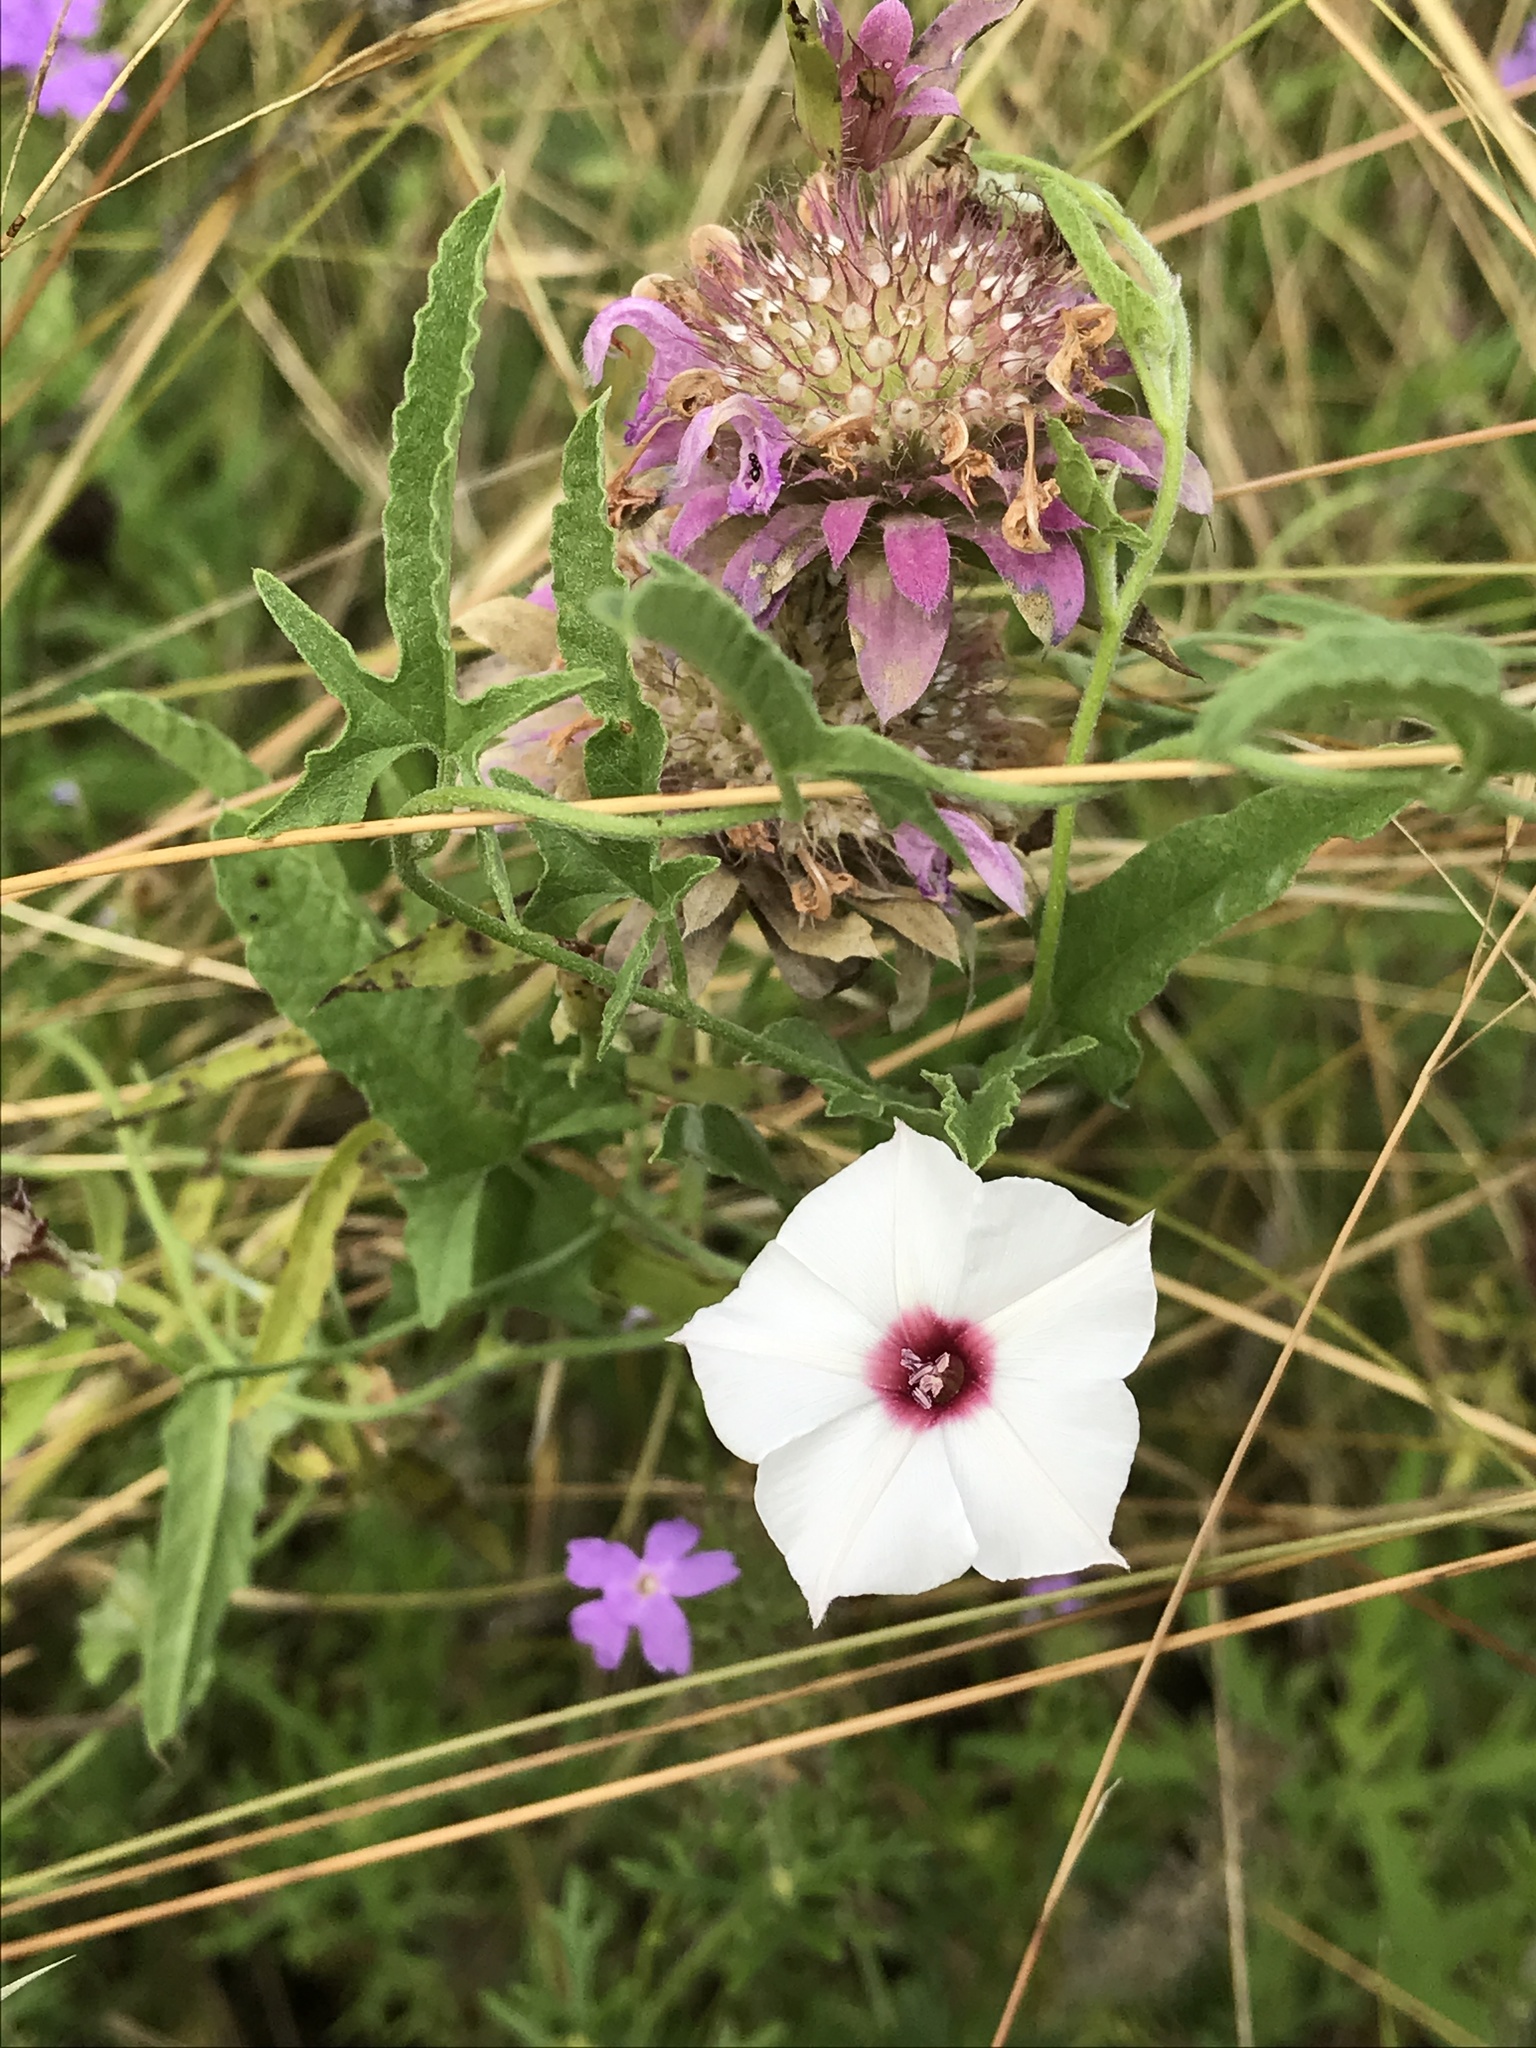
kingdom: Plantae
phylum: Tracheophyta
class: Magnoliopsida
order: Solanales
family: Convolvulaceae
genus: Convolvulus
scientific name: Convolvulus equitans
